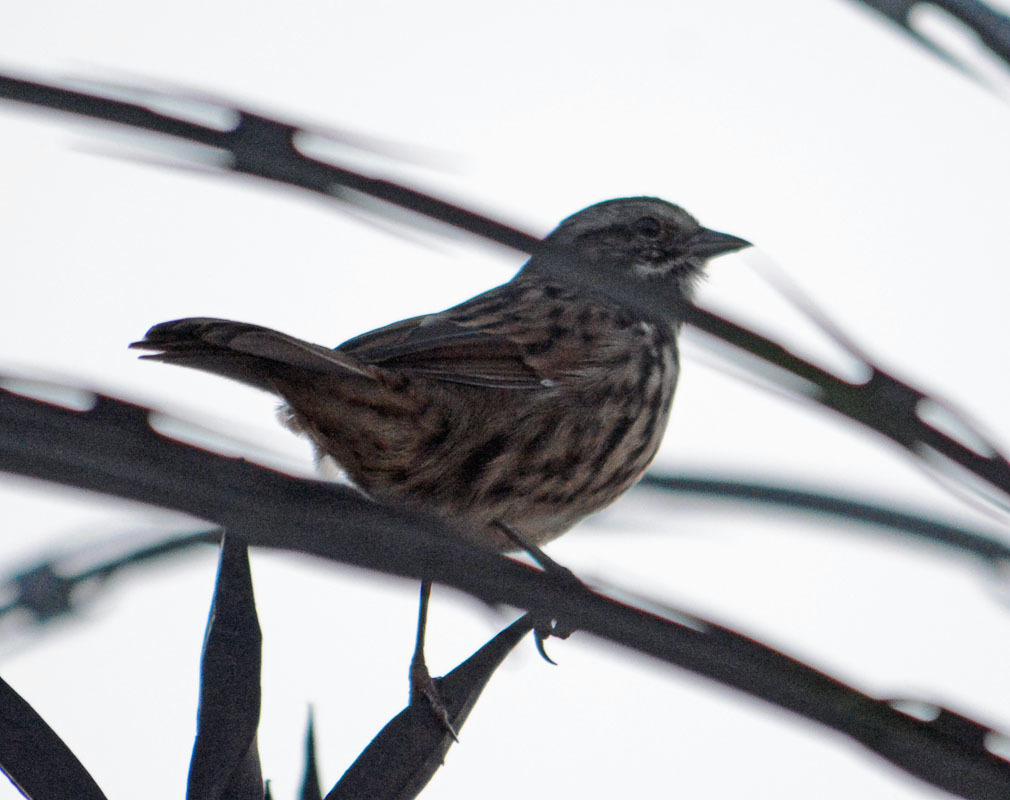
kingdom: Animalia
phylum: Chordata
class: Aves
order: Passeriformes
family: Passerellidae
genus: Melospiza
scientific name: Melospiza melodia
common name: Song sparrow
